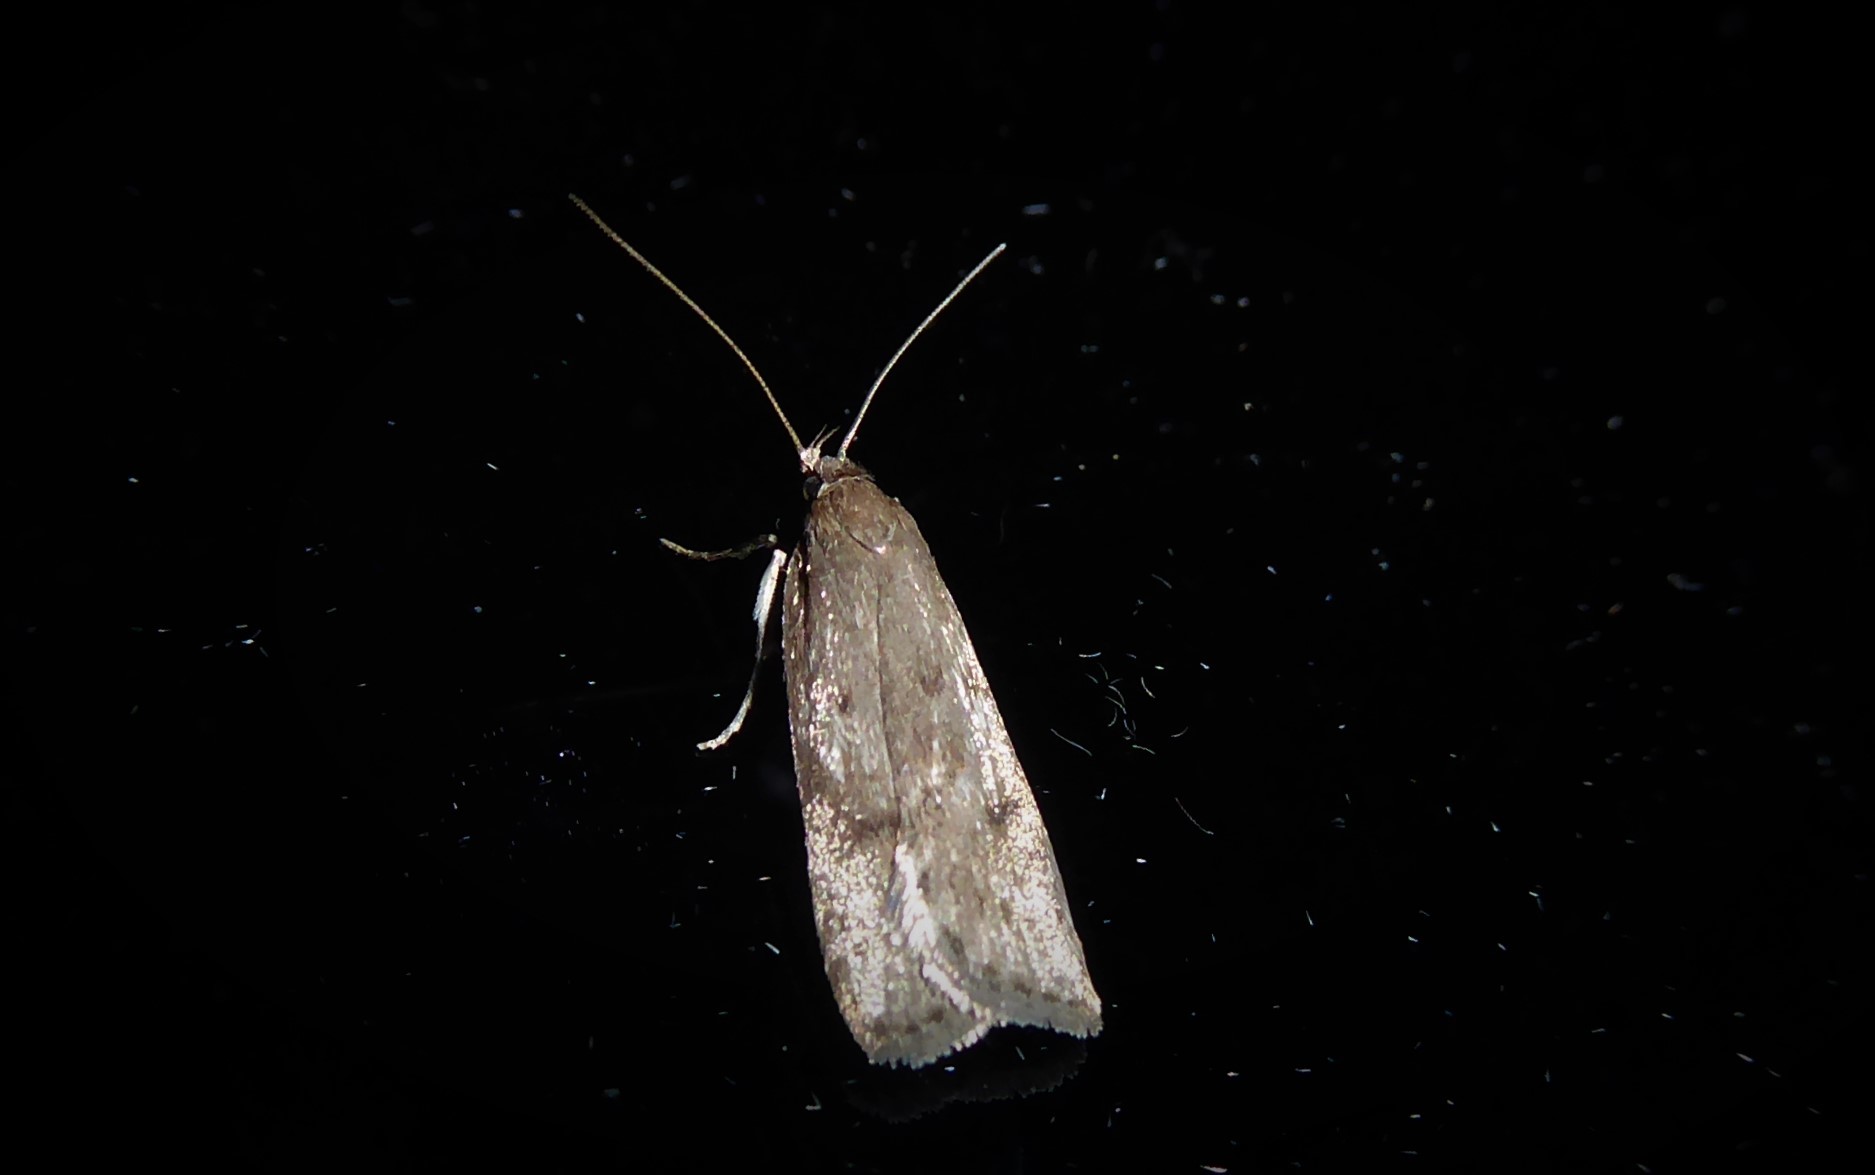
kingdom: Animalia
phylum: Arthropoda
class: Insecta
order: Lepidoptera
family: Depressariidae
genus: Phaeosaces
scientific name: Phaeosaces apocrypta
